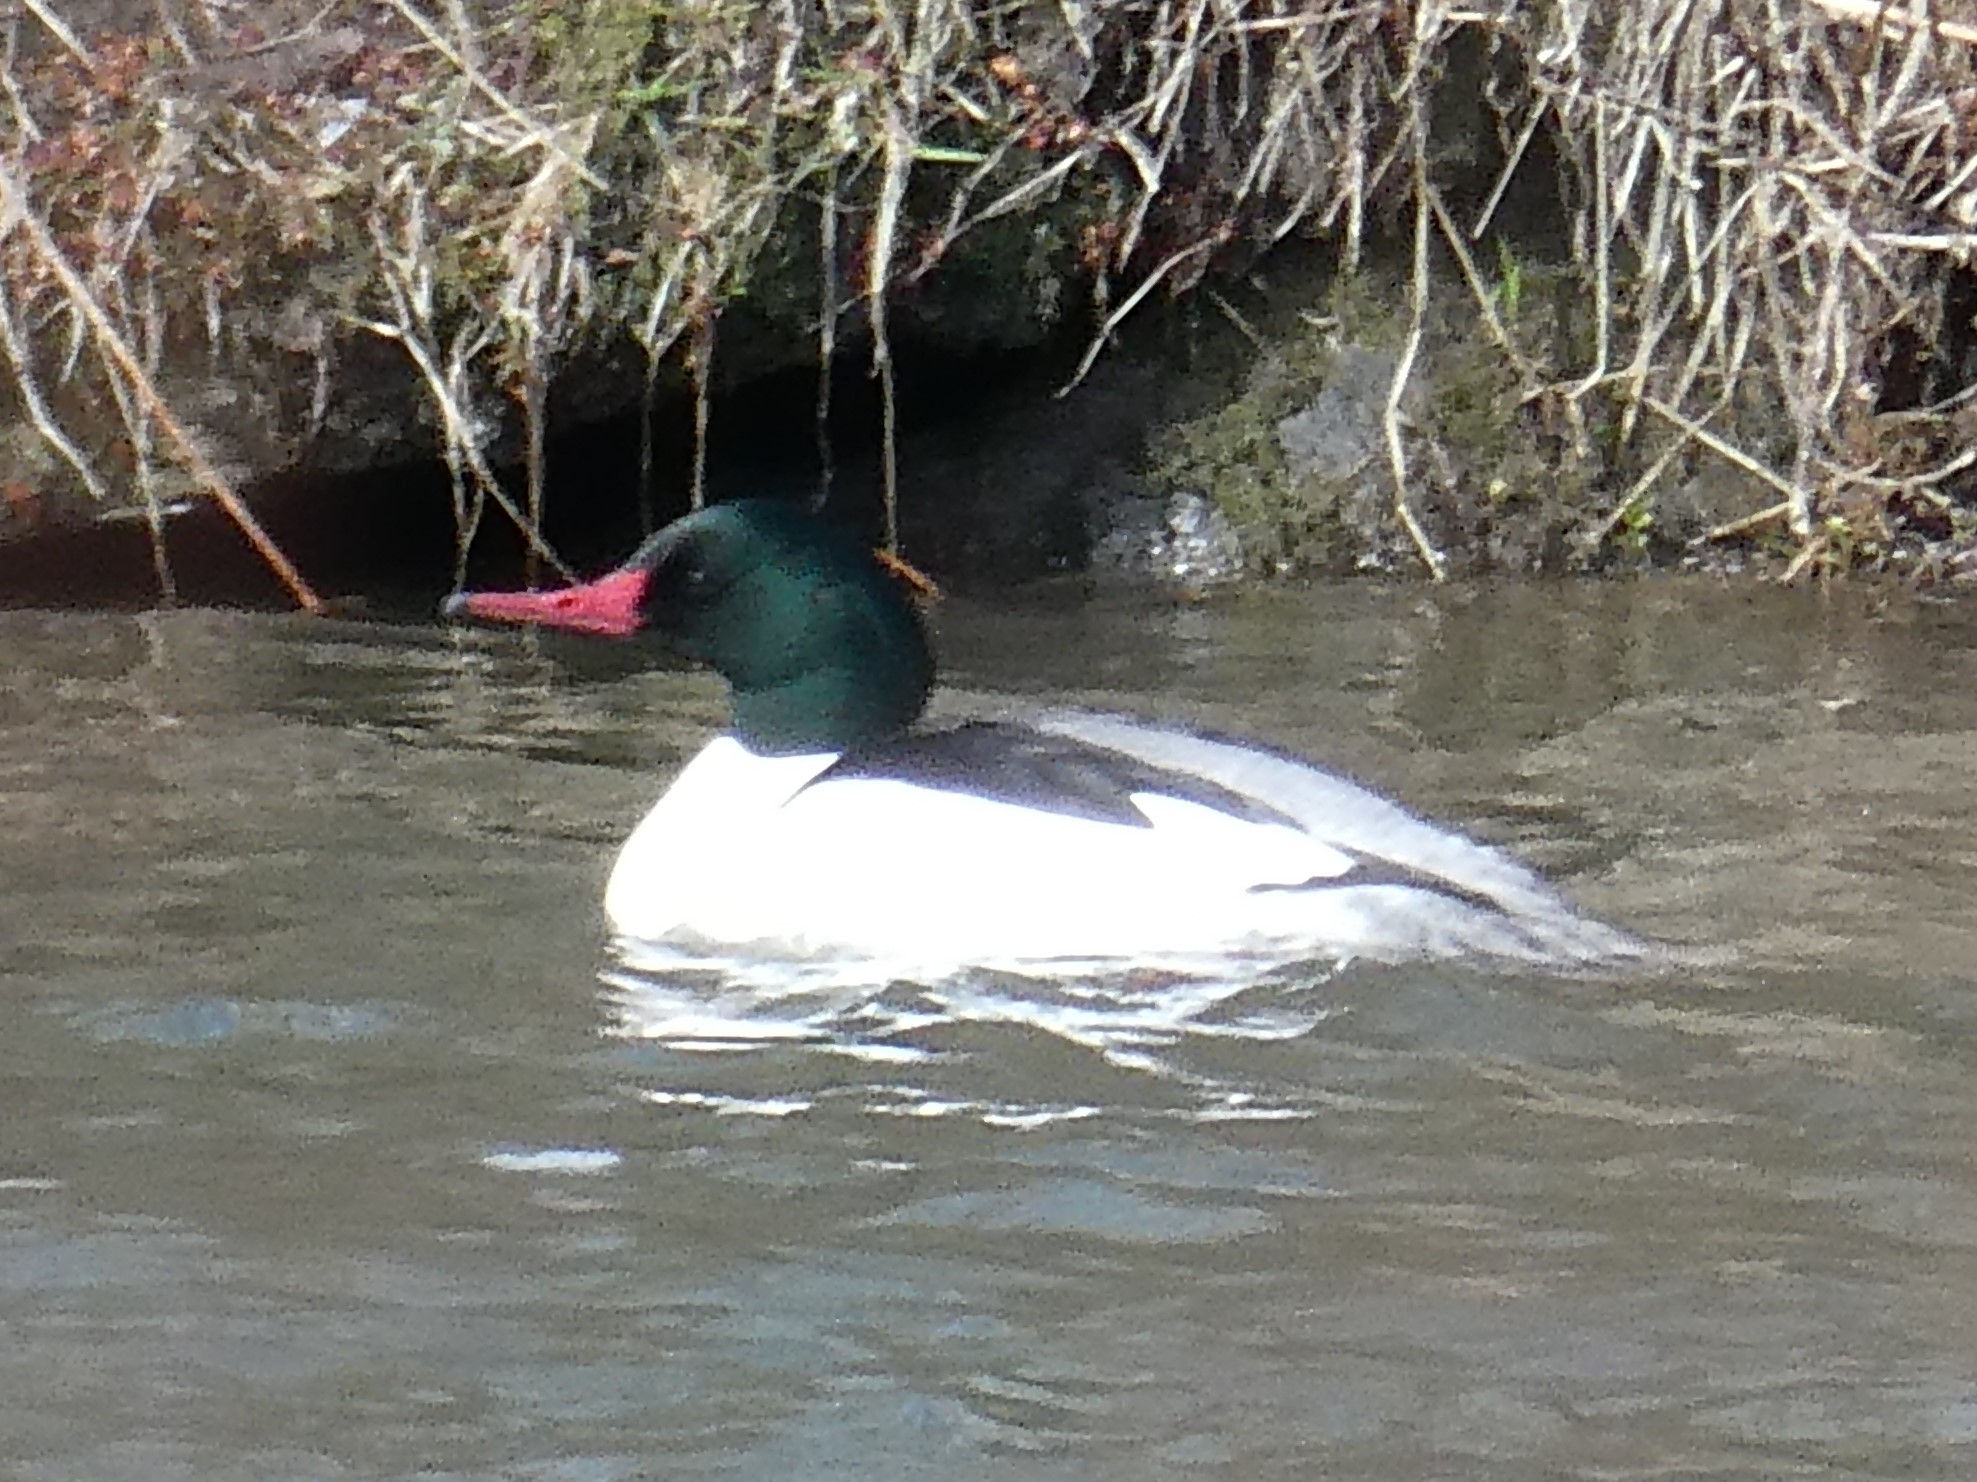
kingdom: Animalia
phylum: Chordata
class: Aves
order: Anseriformes
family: Anatidae
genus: Mergus
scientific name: Mergus merganser
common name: Common merganser
